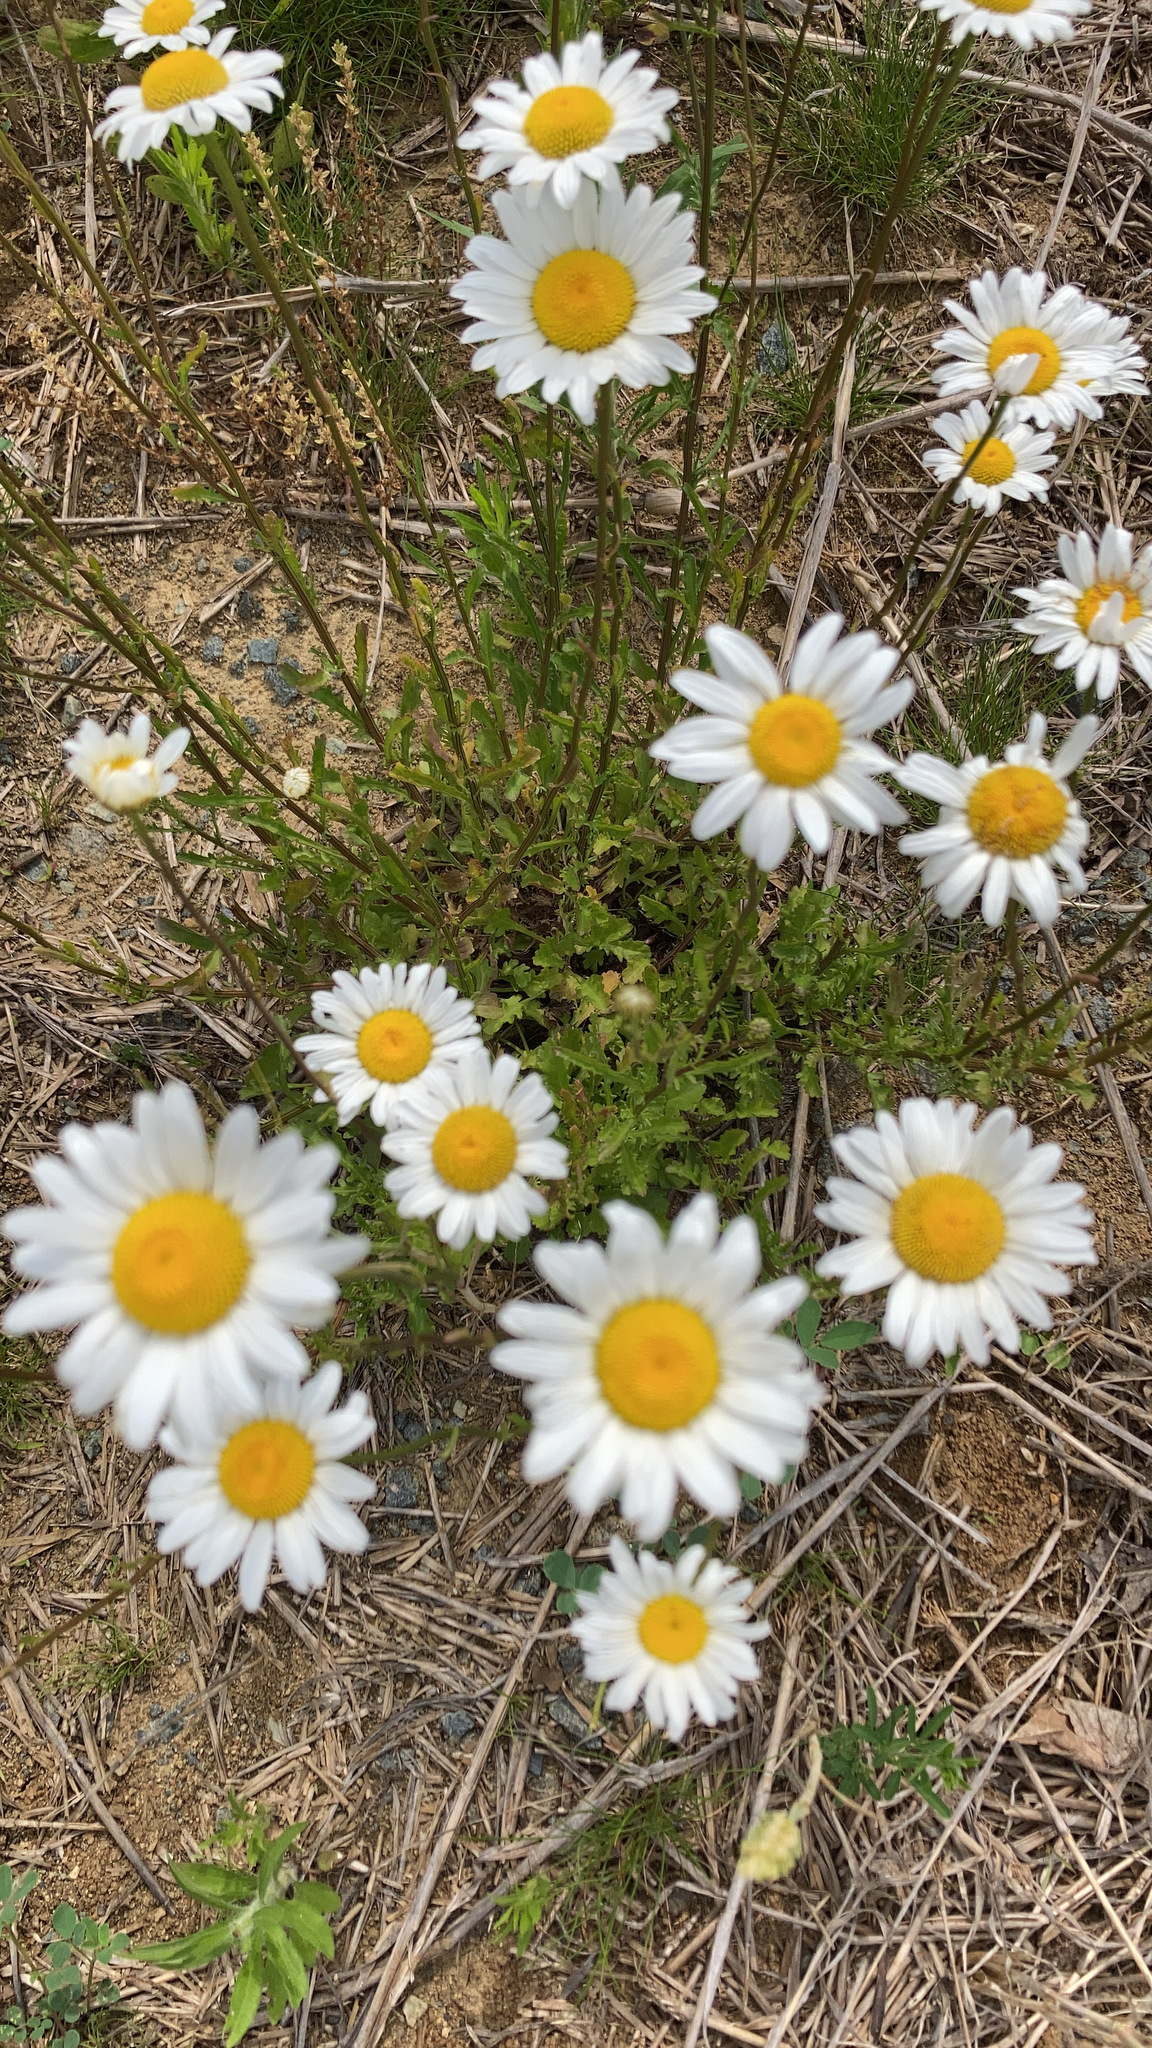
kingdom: Plantae
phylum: Tracheophyta
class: Magnoliopsida
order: Asterales
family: Asteraceae
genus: Leucanthemum
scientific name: Leucanthemum vulgare
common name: Oxeye daisy
